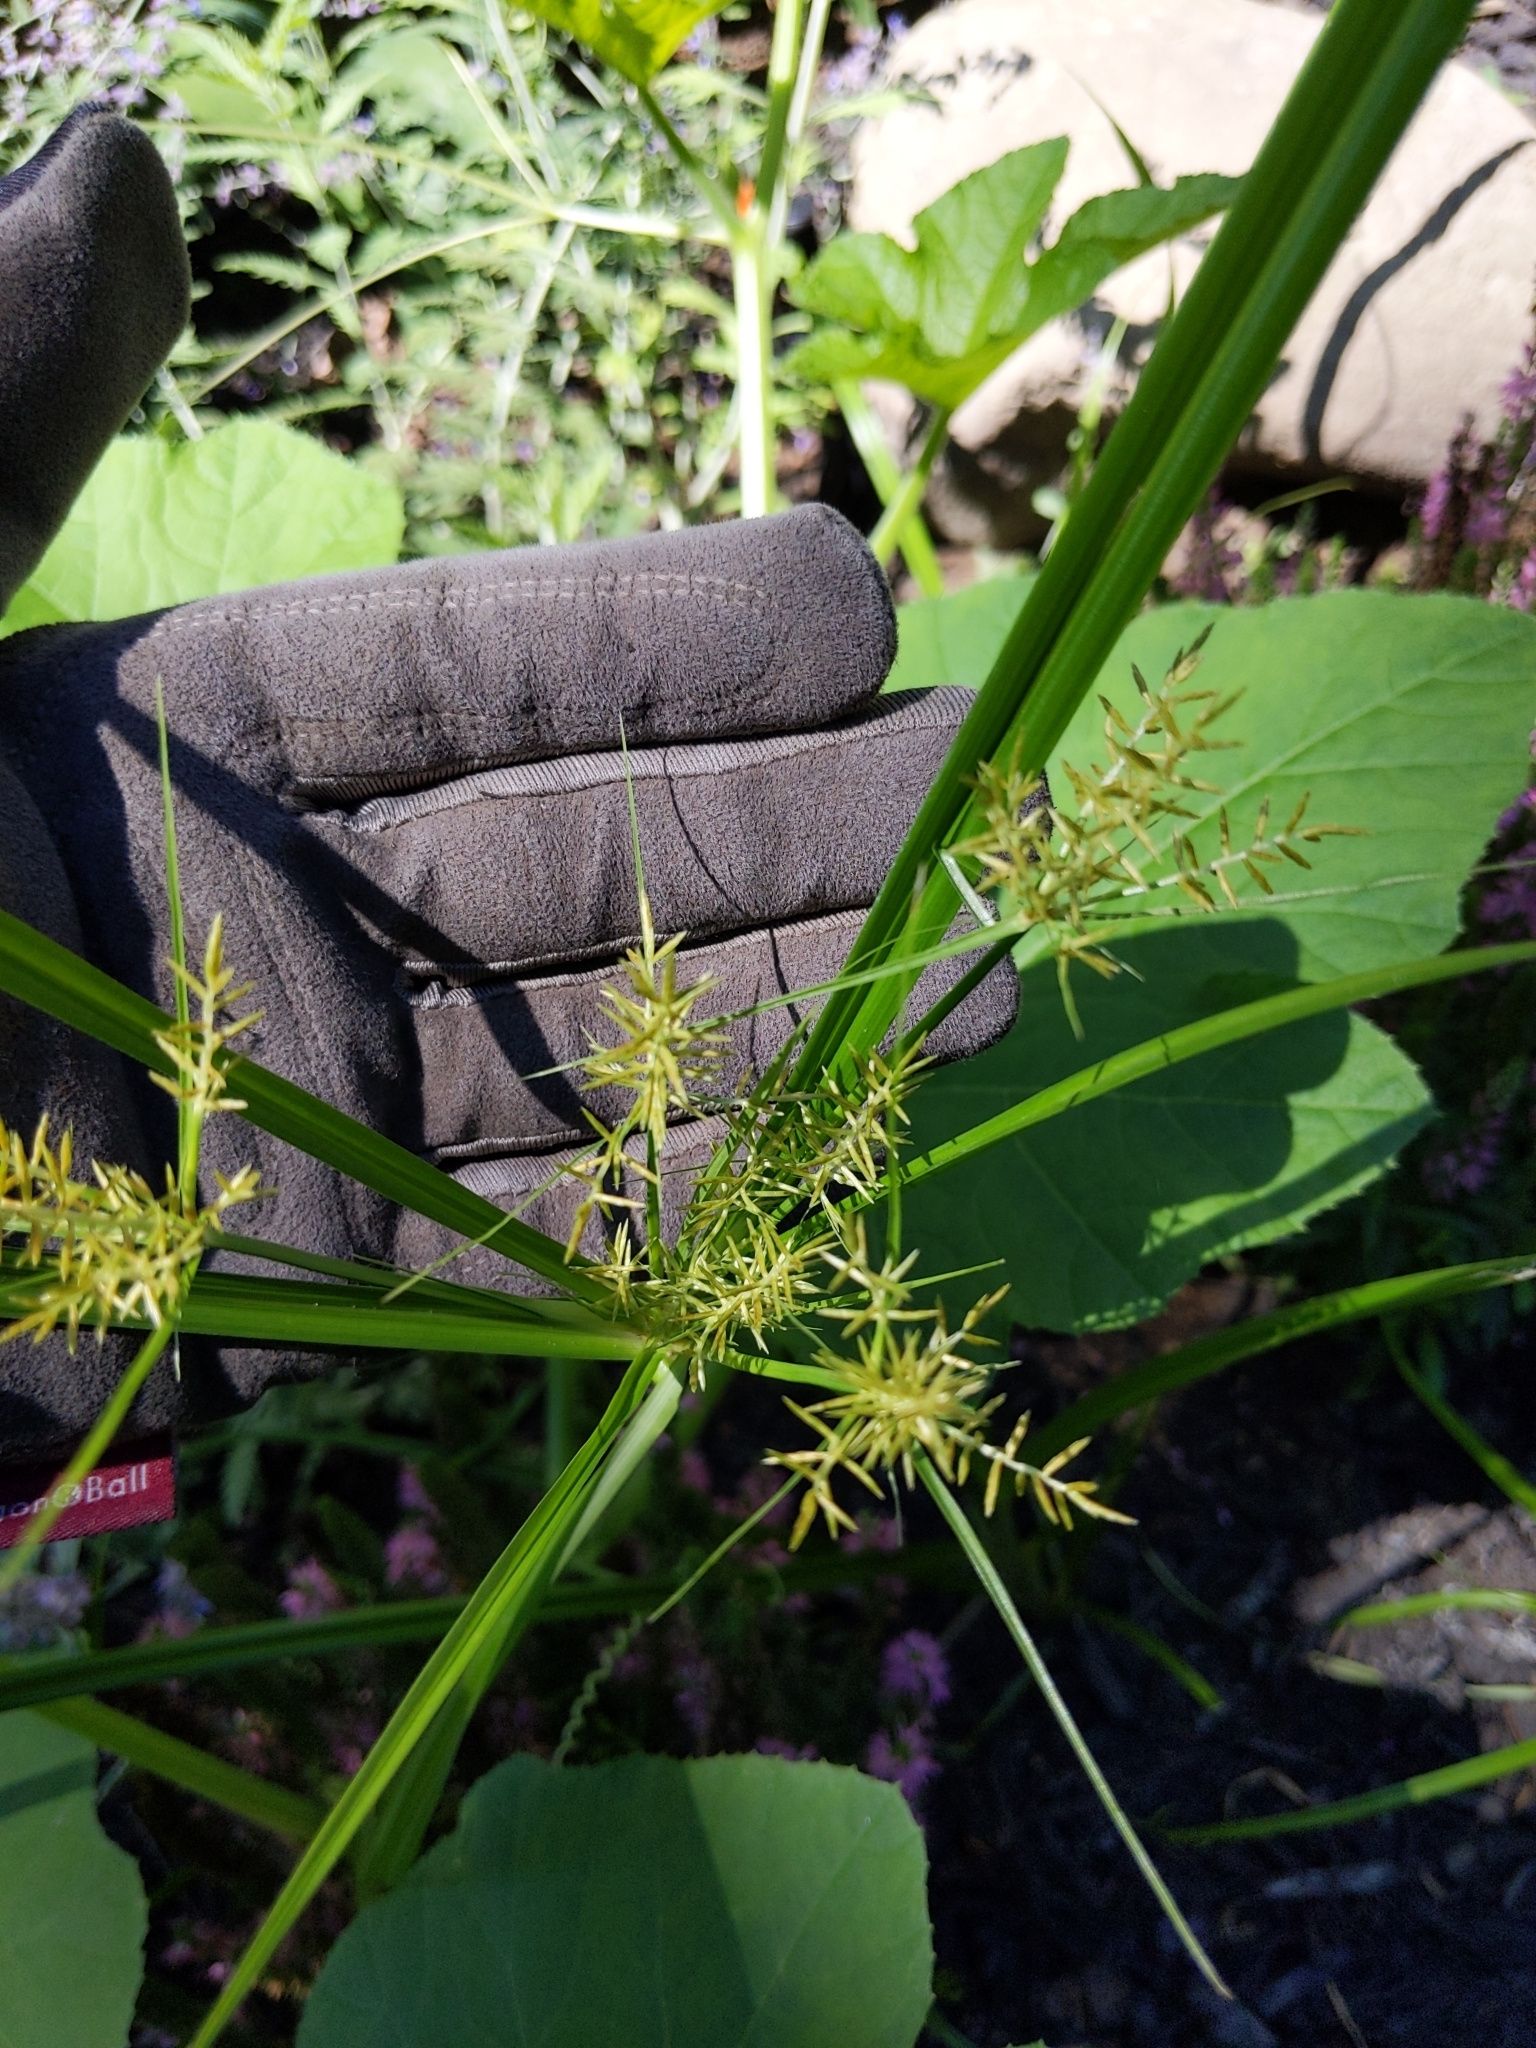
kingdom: Plantae
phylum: Tracheophyta
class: Liliopsida
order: Poales
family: Cyperaceae
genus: Cyperus
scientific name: Cyperus esculentus
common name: Yellow nutsedge
